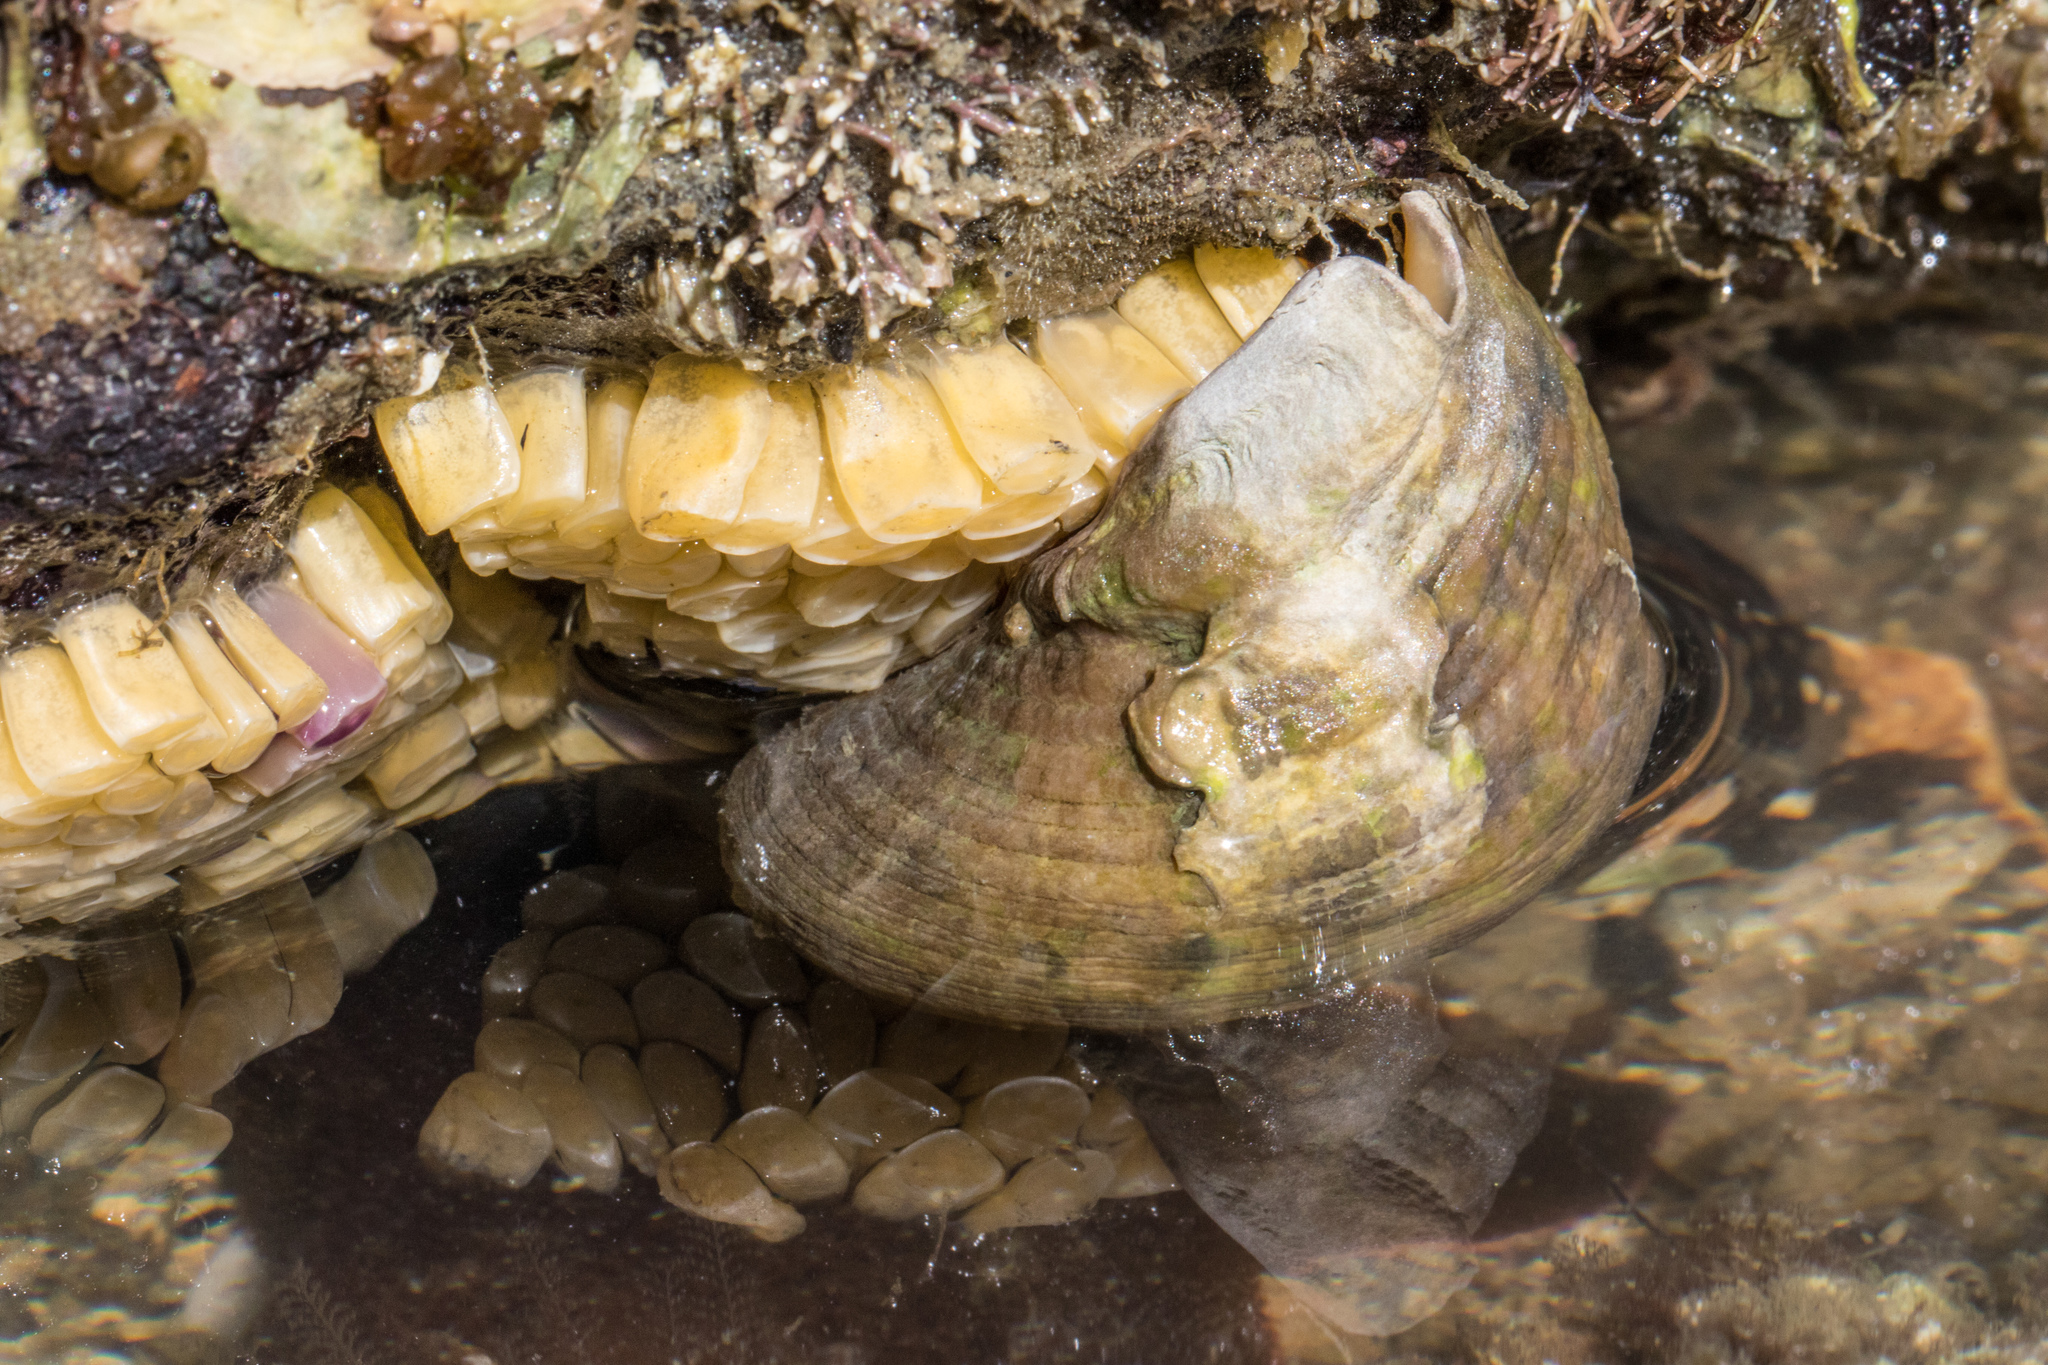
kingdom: Animalia
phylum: Mollusca
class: Gastropoda
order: Neogastropoda
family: Muricidae
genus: Dicathais
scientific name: Dicathais orbita
